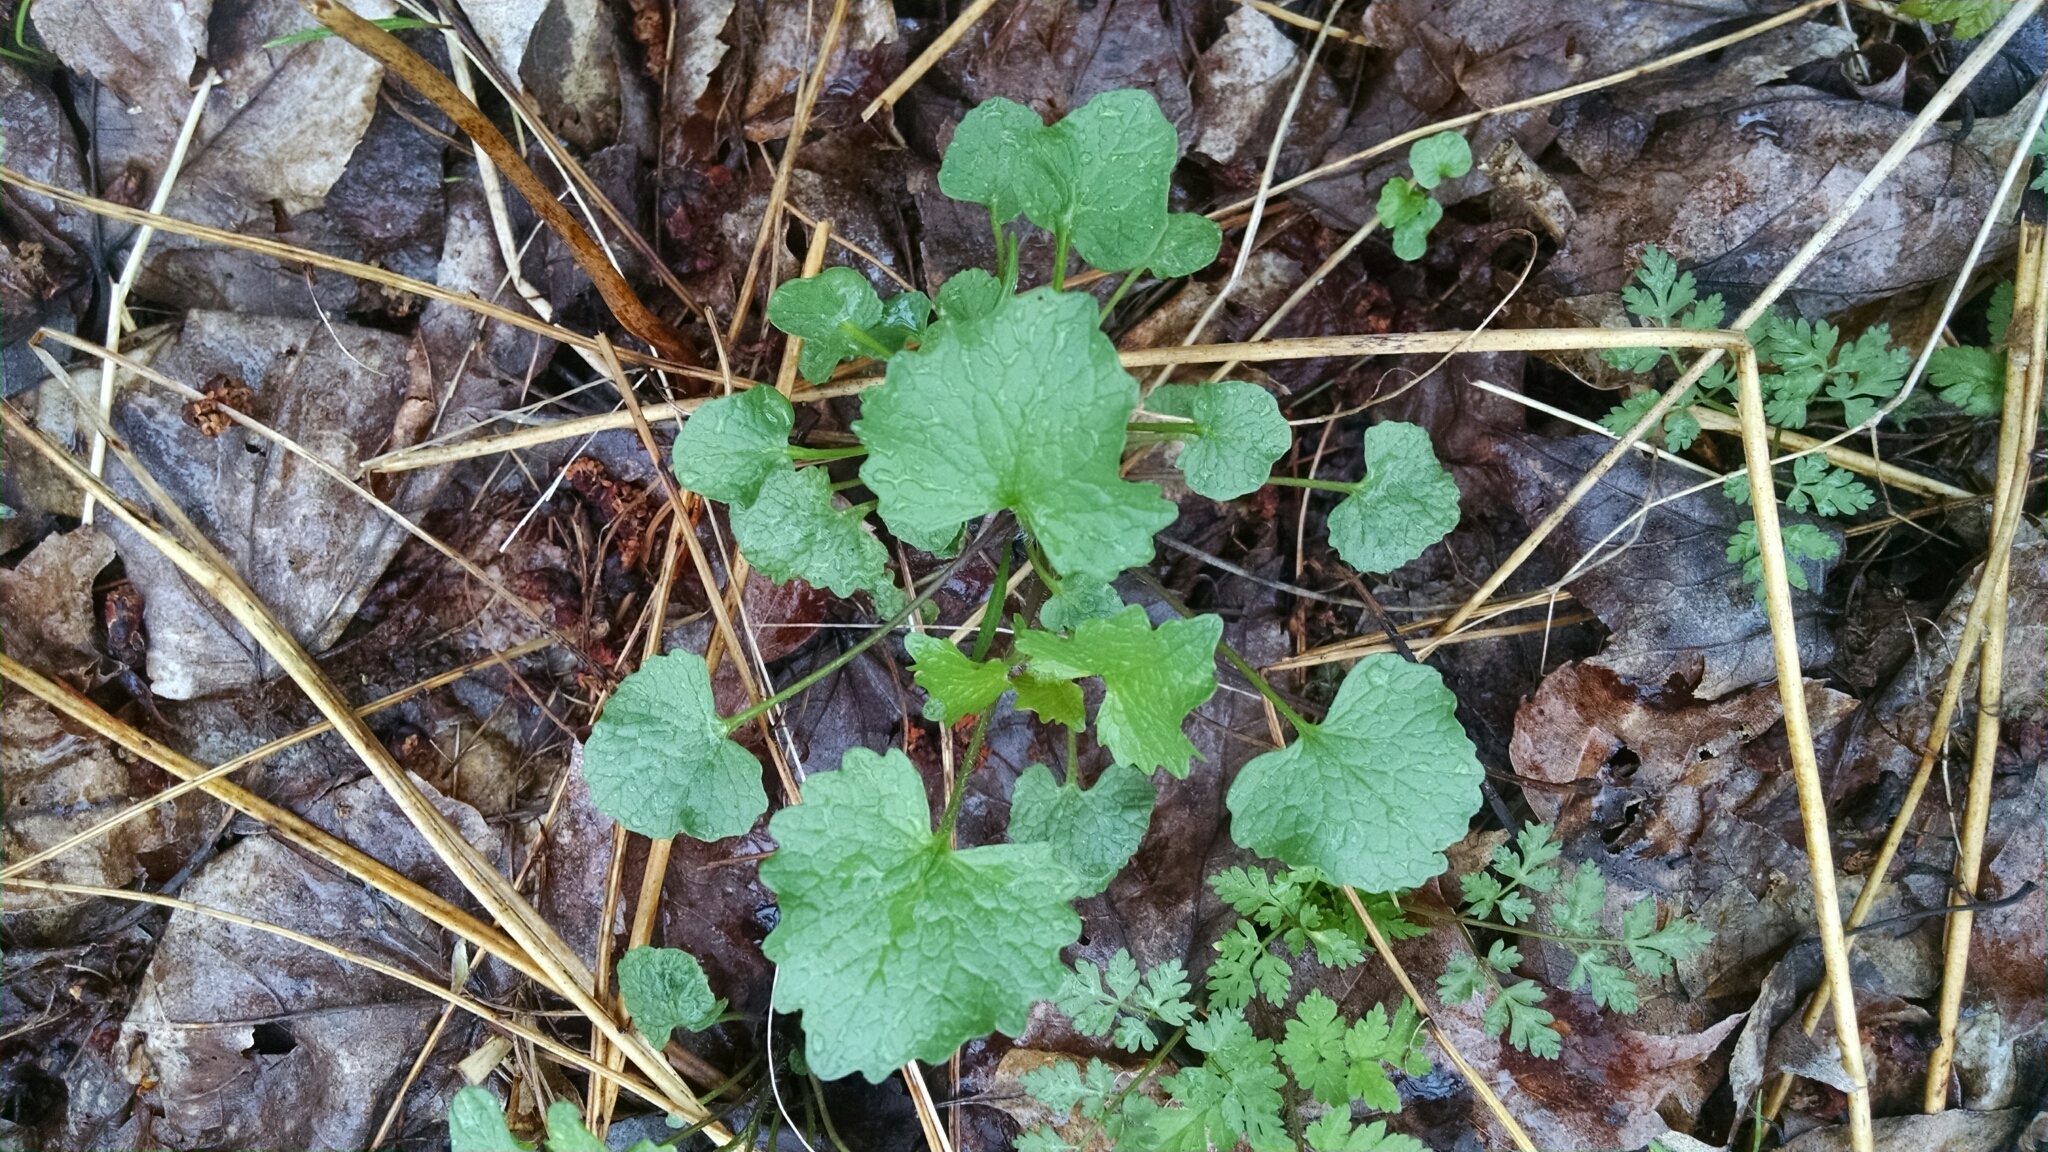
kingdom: Plantae
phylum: Tracheophyta
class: Magnoliopsida
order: Brassicales
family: Brassicaceae
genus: Alliaria
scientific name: Alliaria petiolata
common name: Garlic mustard
